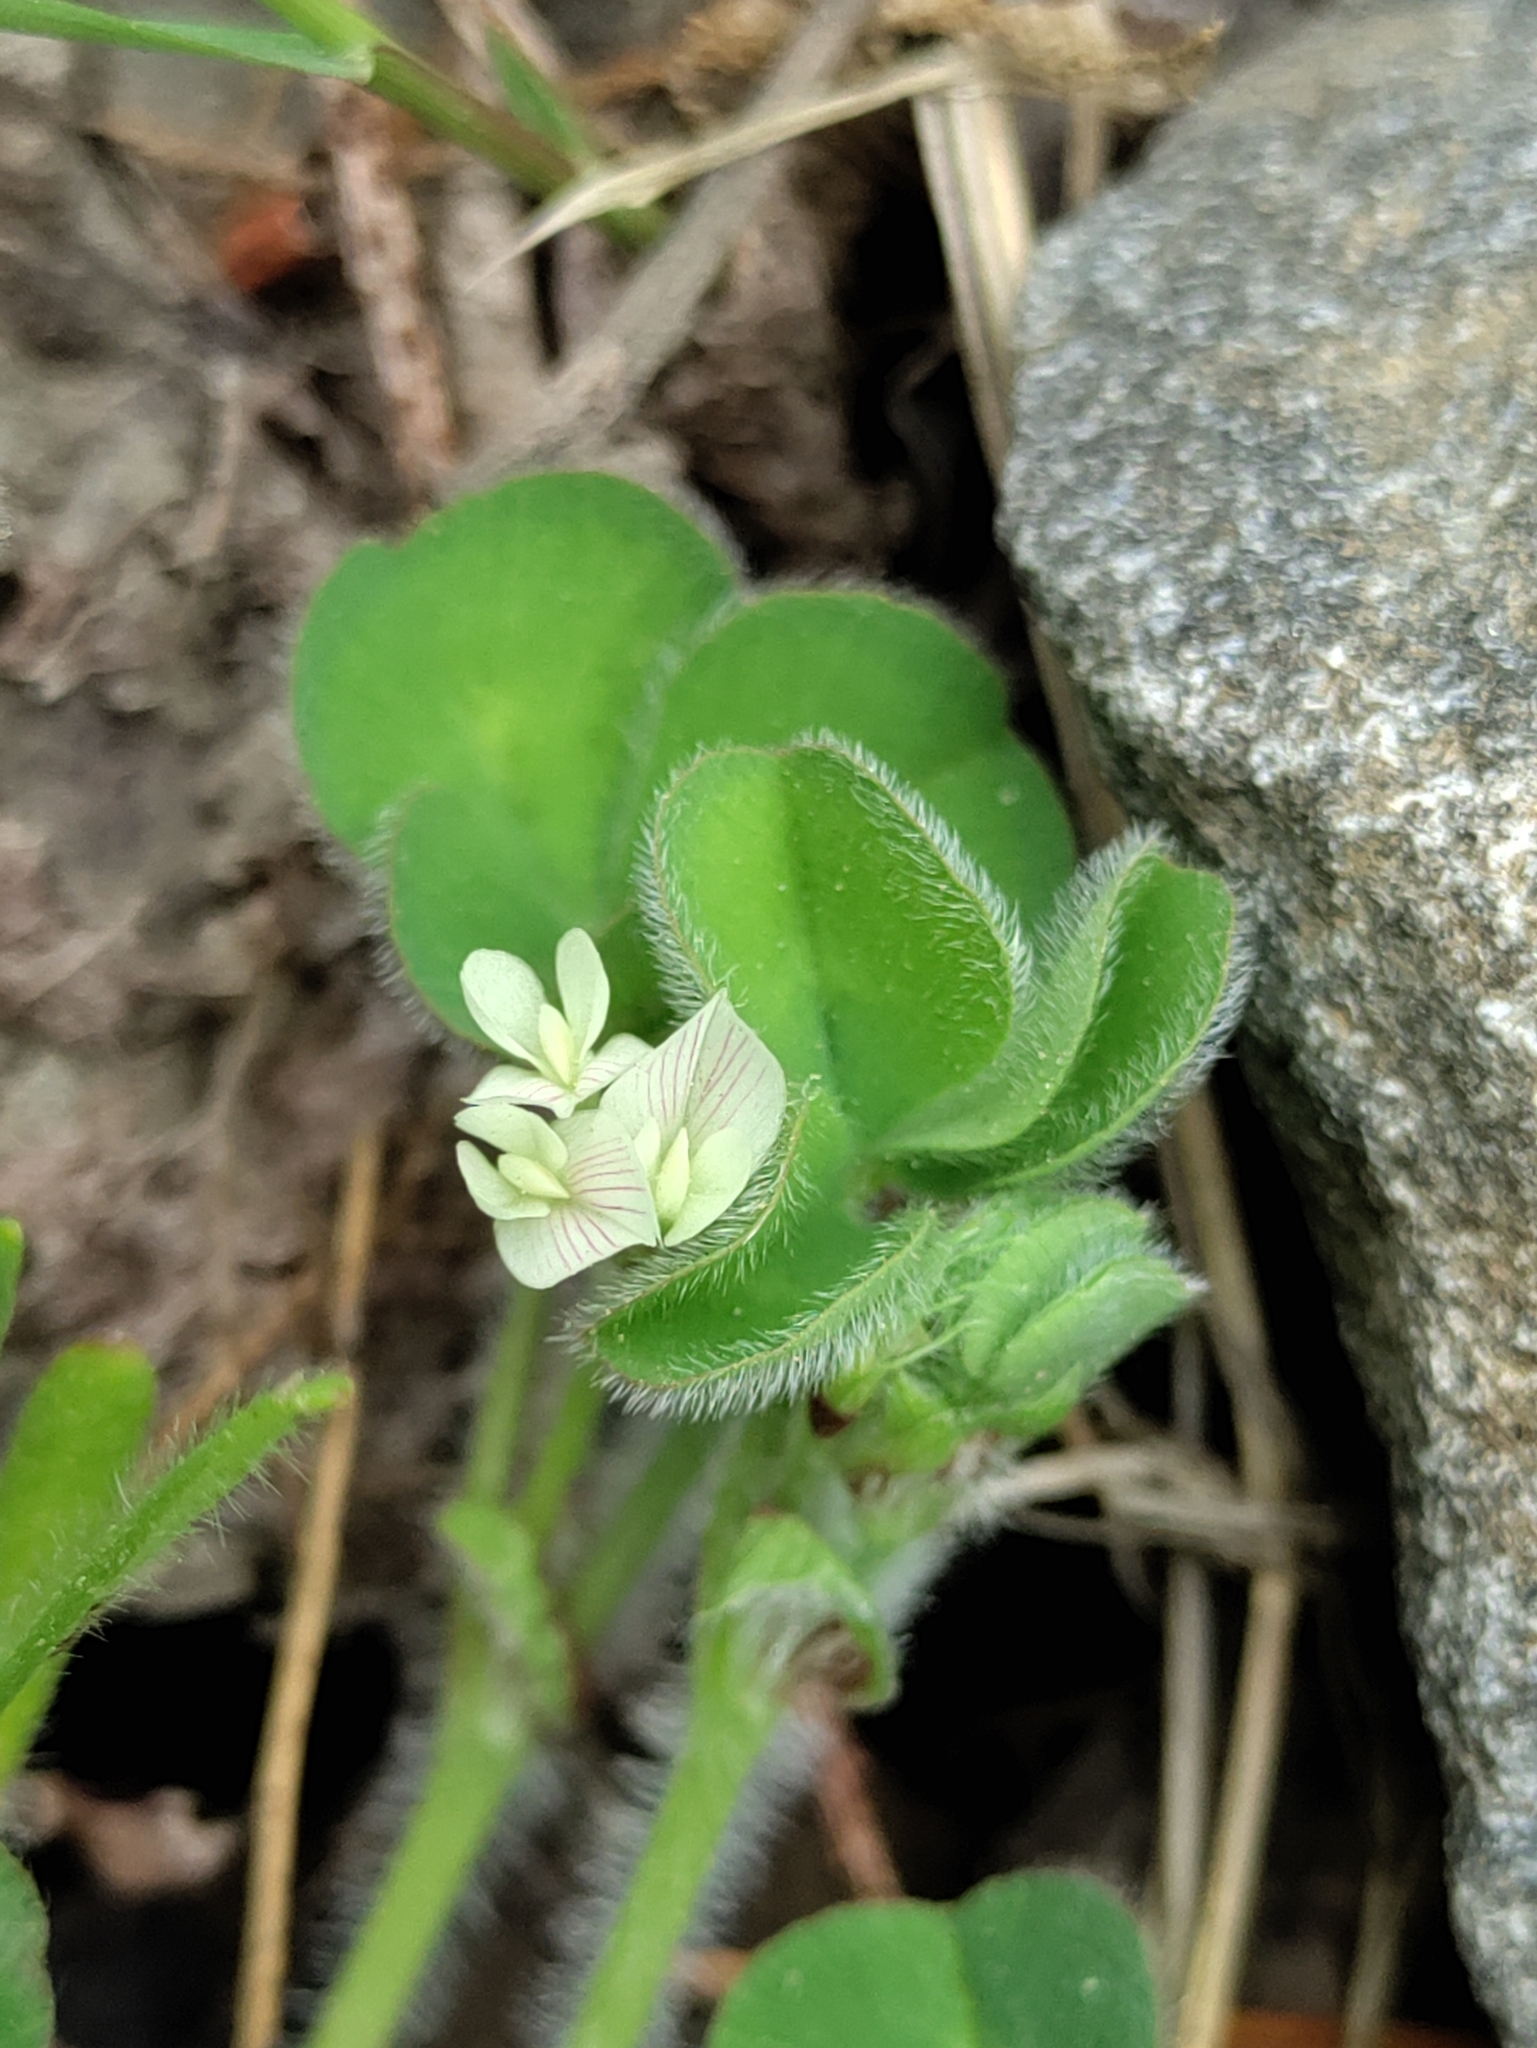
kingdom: Plantae
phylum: Tracheophyta
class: Magnoliopsida
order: Fabales
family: Fabaceae
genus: Trifolium
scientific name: Trifolium subterraneum
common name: Subterranean clover
